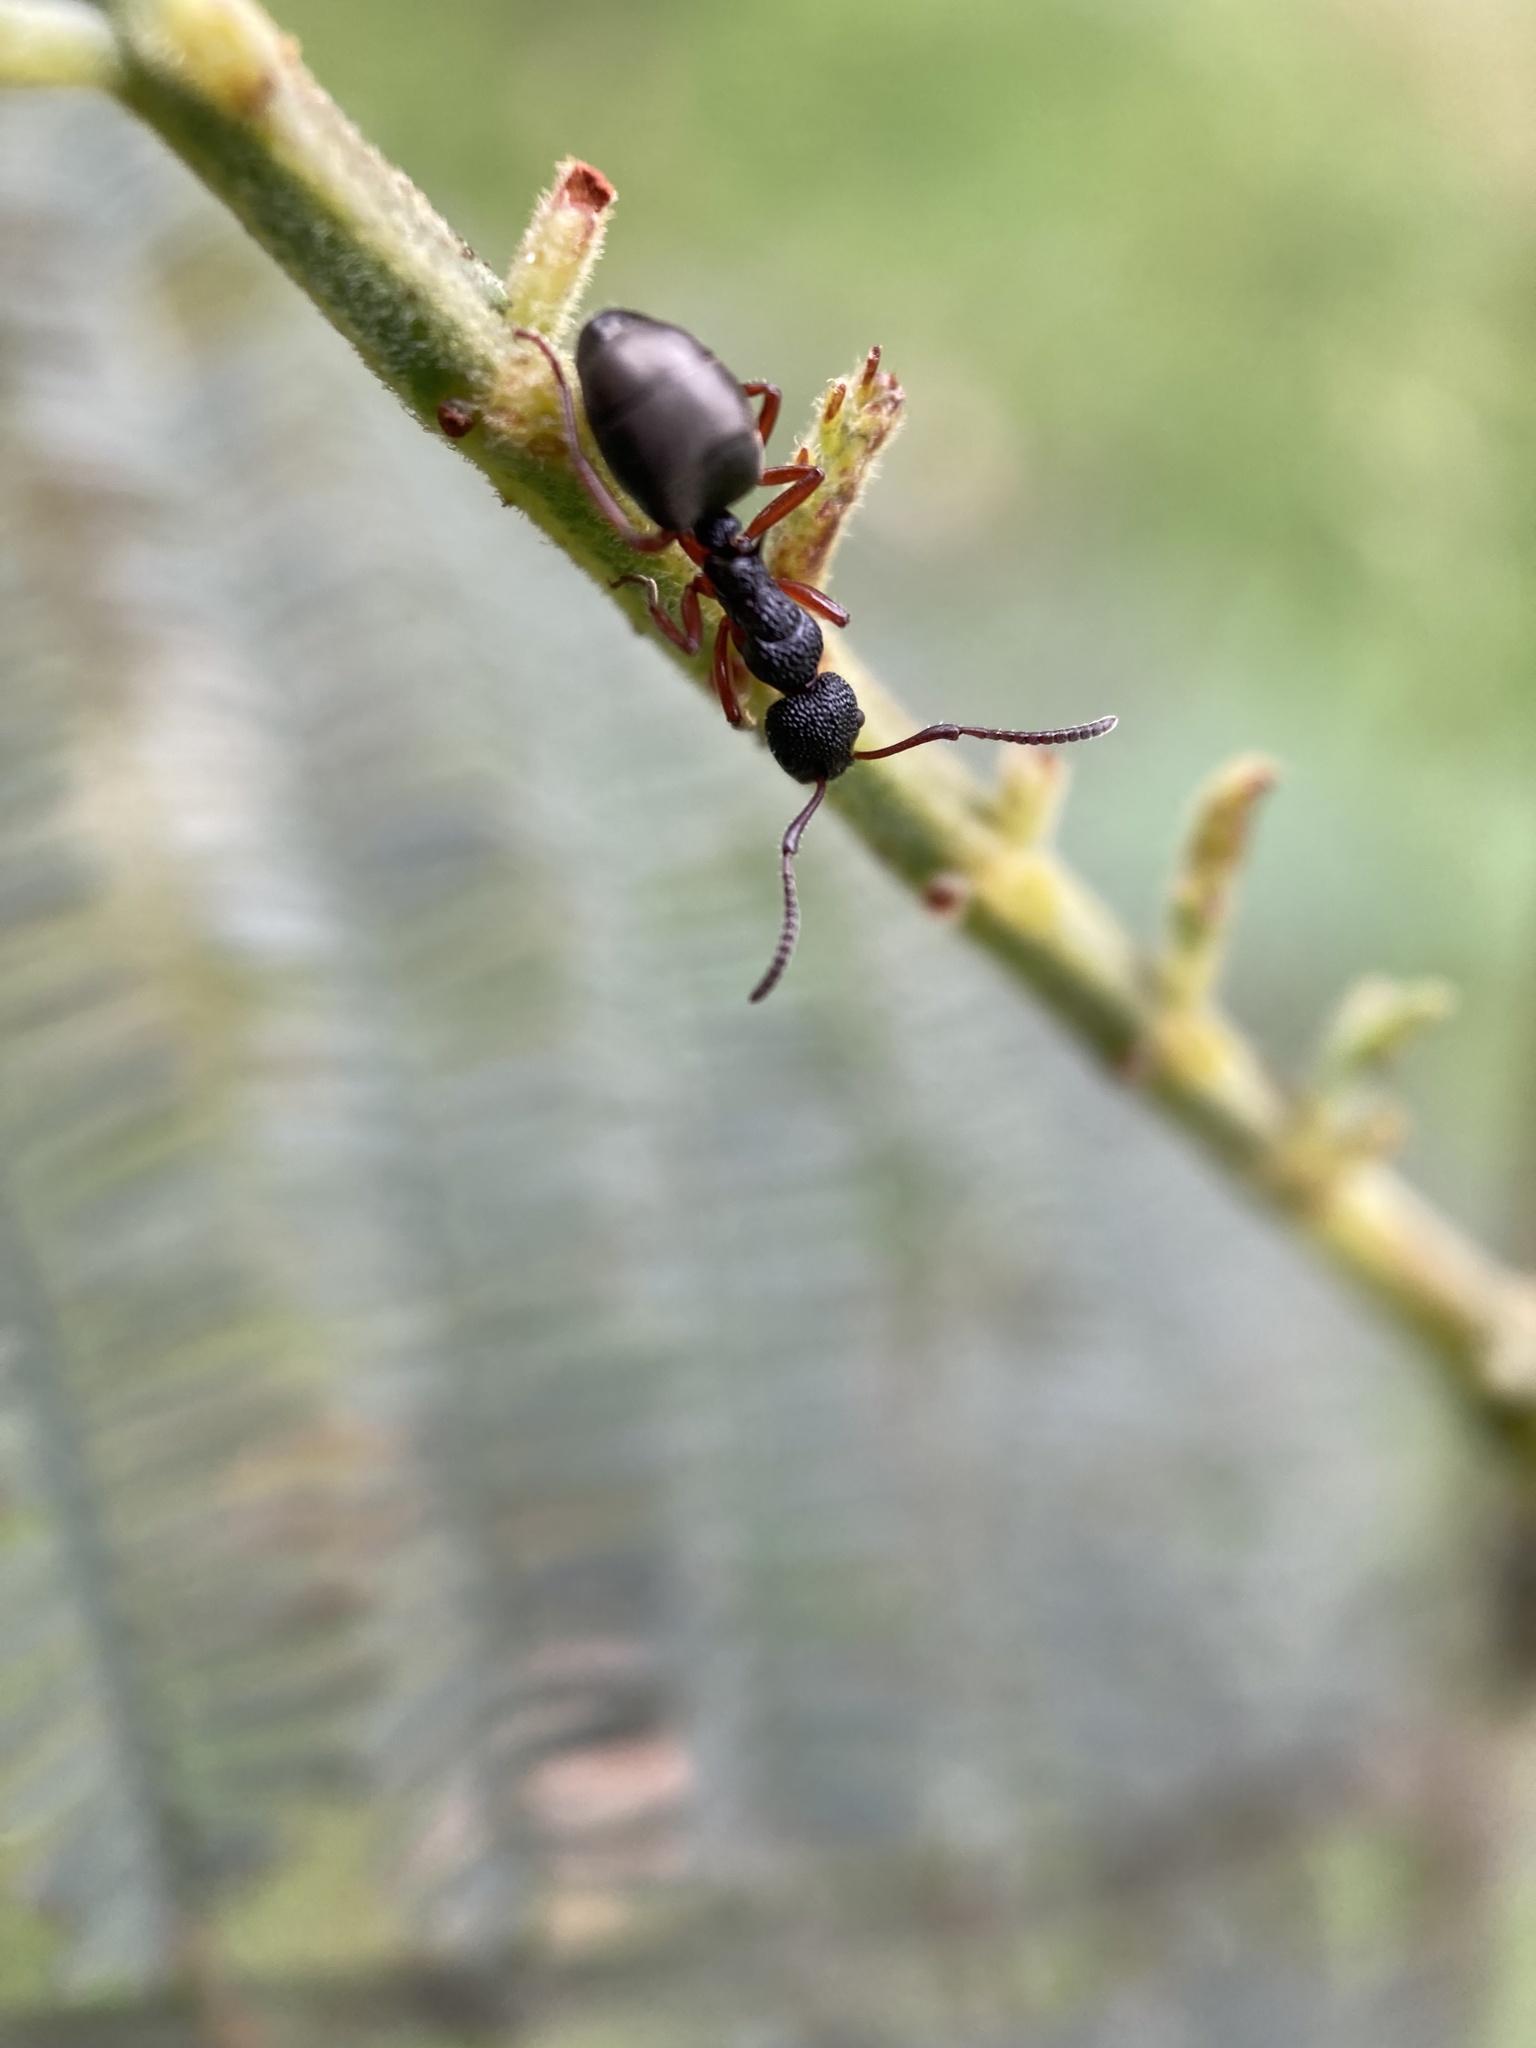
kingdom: Animalia
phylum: Arthropoda
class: Insecta
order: Hymenoptera
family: Formicidae
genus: Dolichoderus
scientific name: Dolichoderus scabridus
